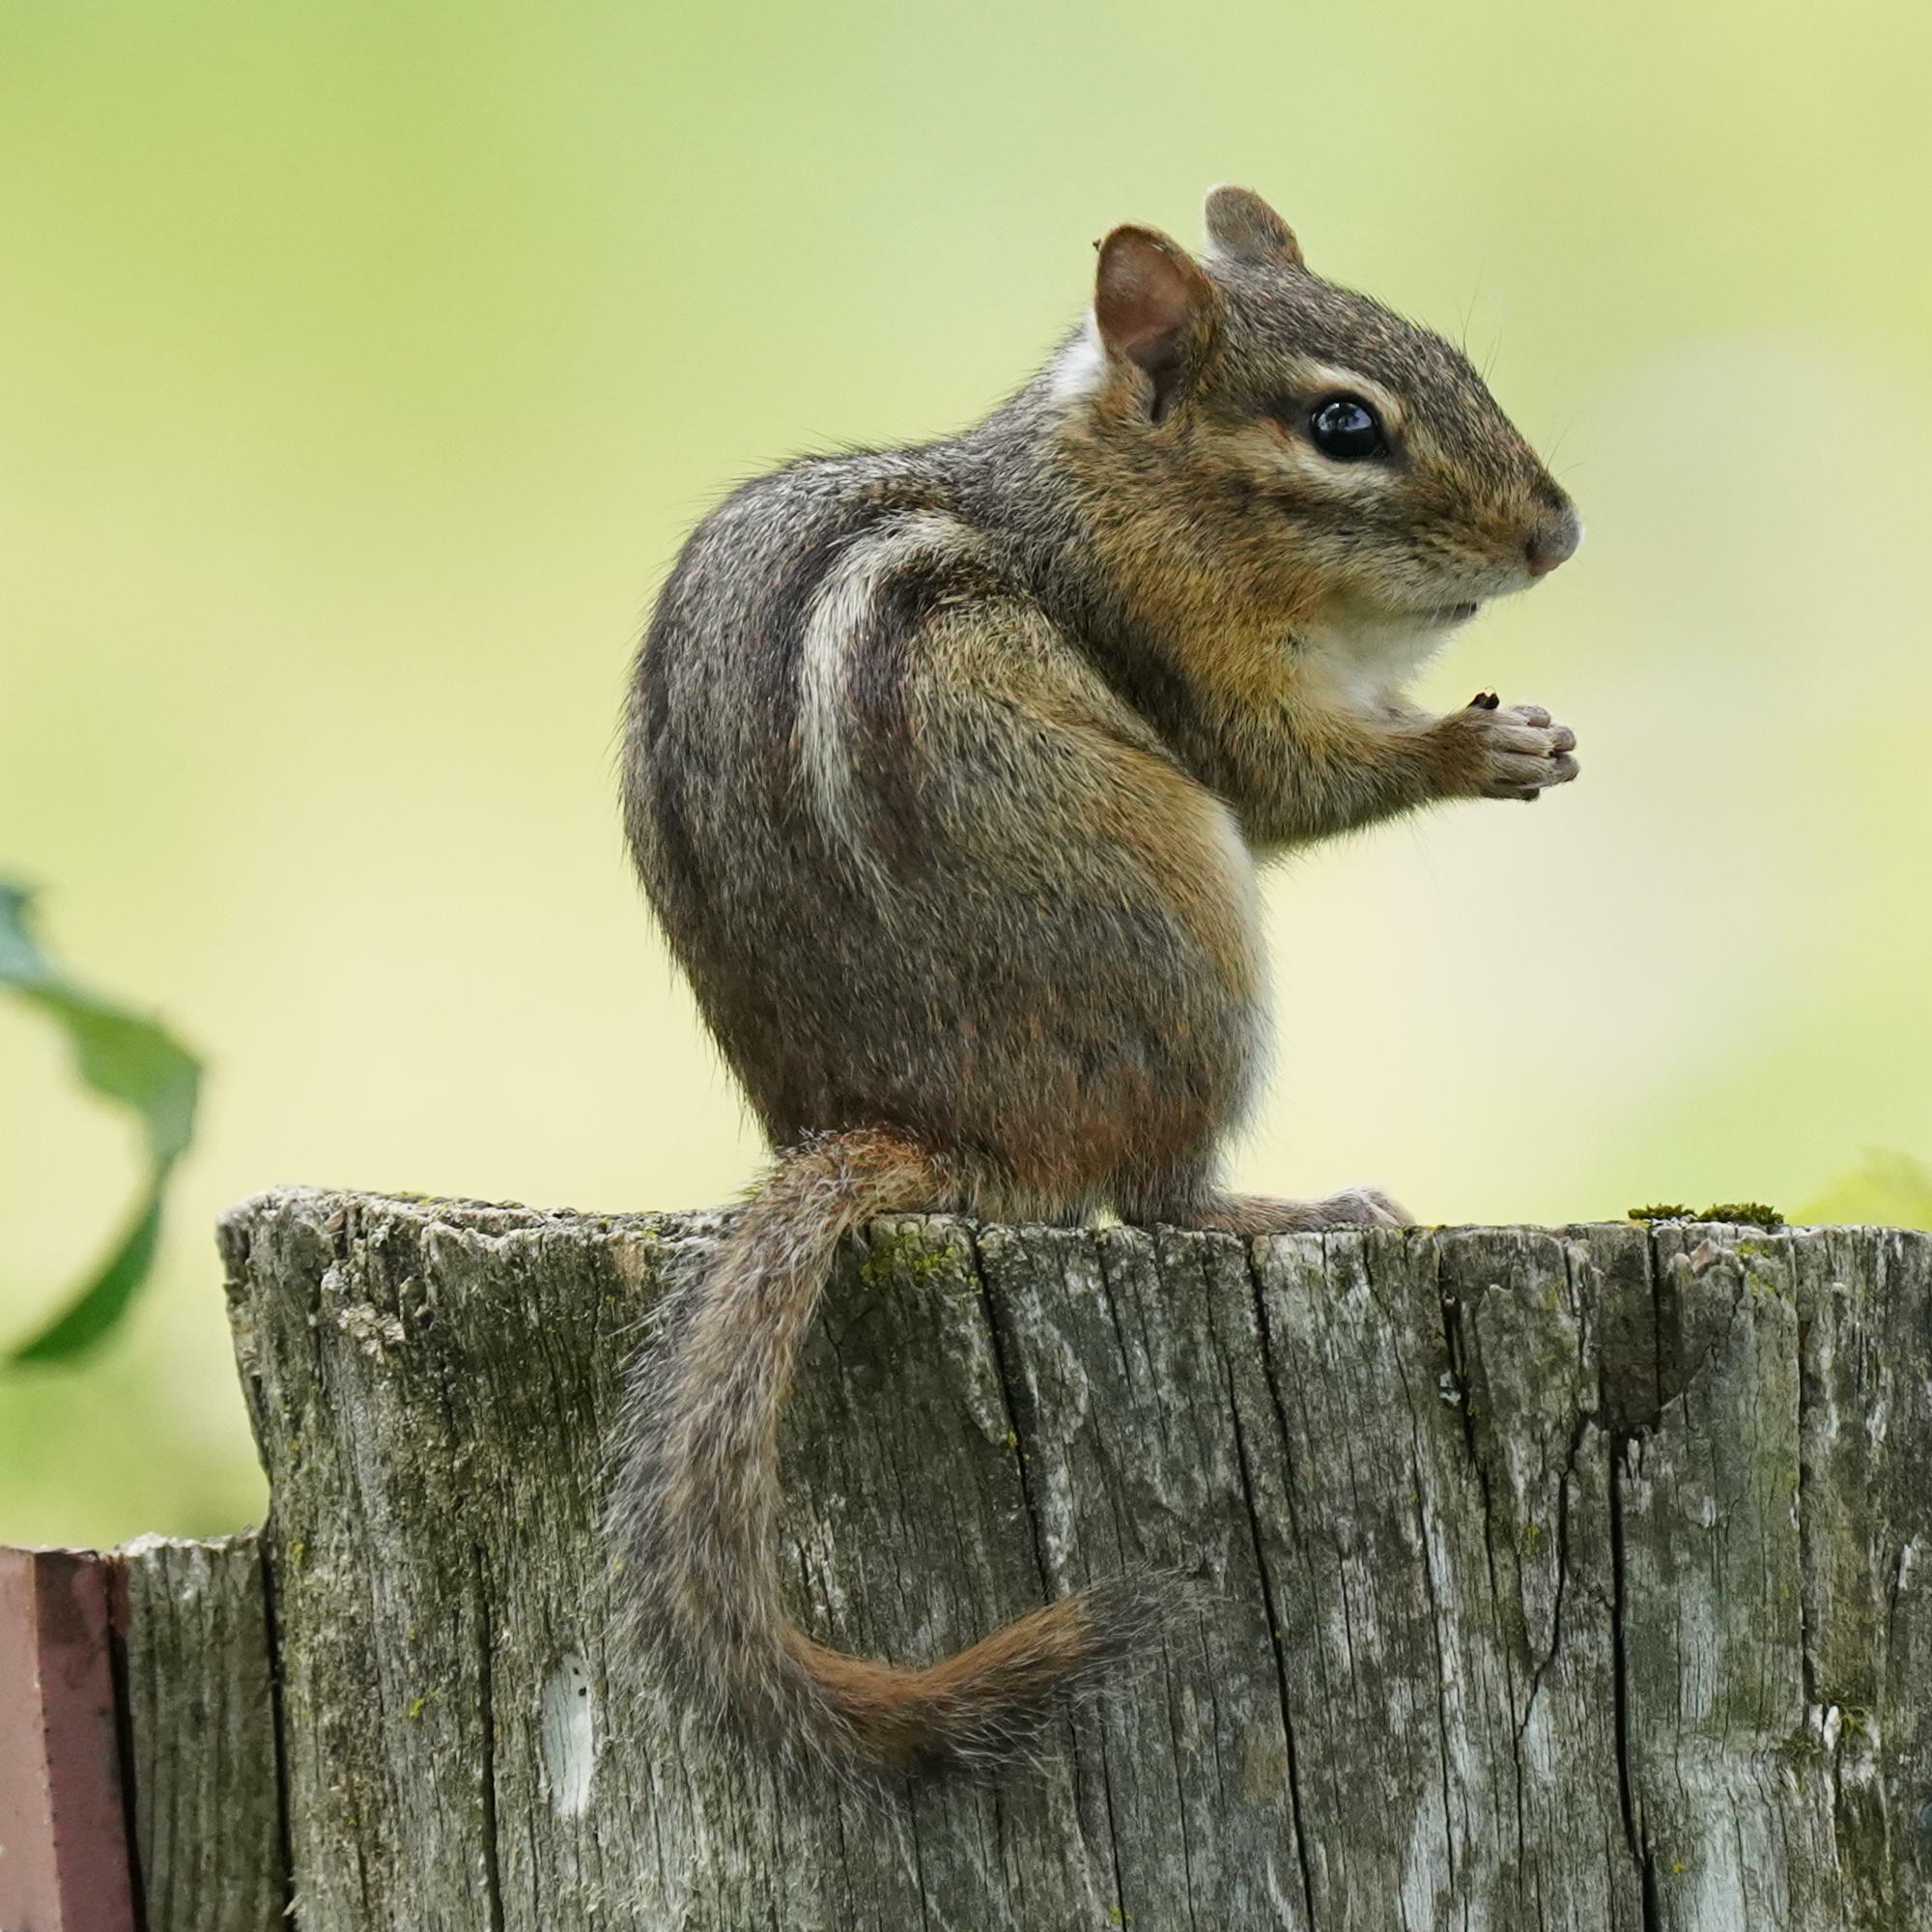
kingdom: Animalia
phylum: Chordata
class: Mammalia
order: Rodentia
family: Sciuridae
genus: Tamias
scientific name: Tamias striatus
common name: Eastern chipmunk
